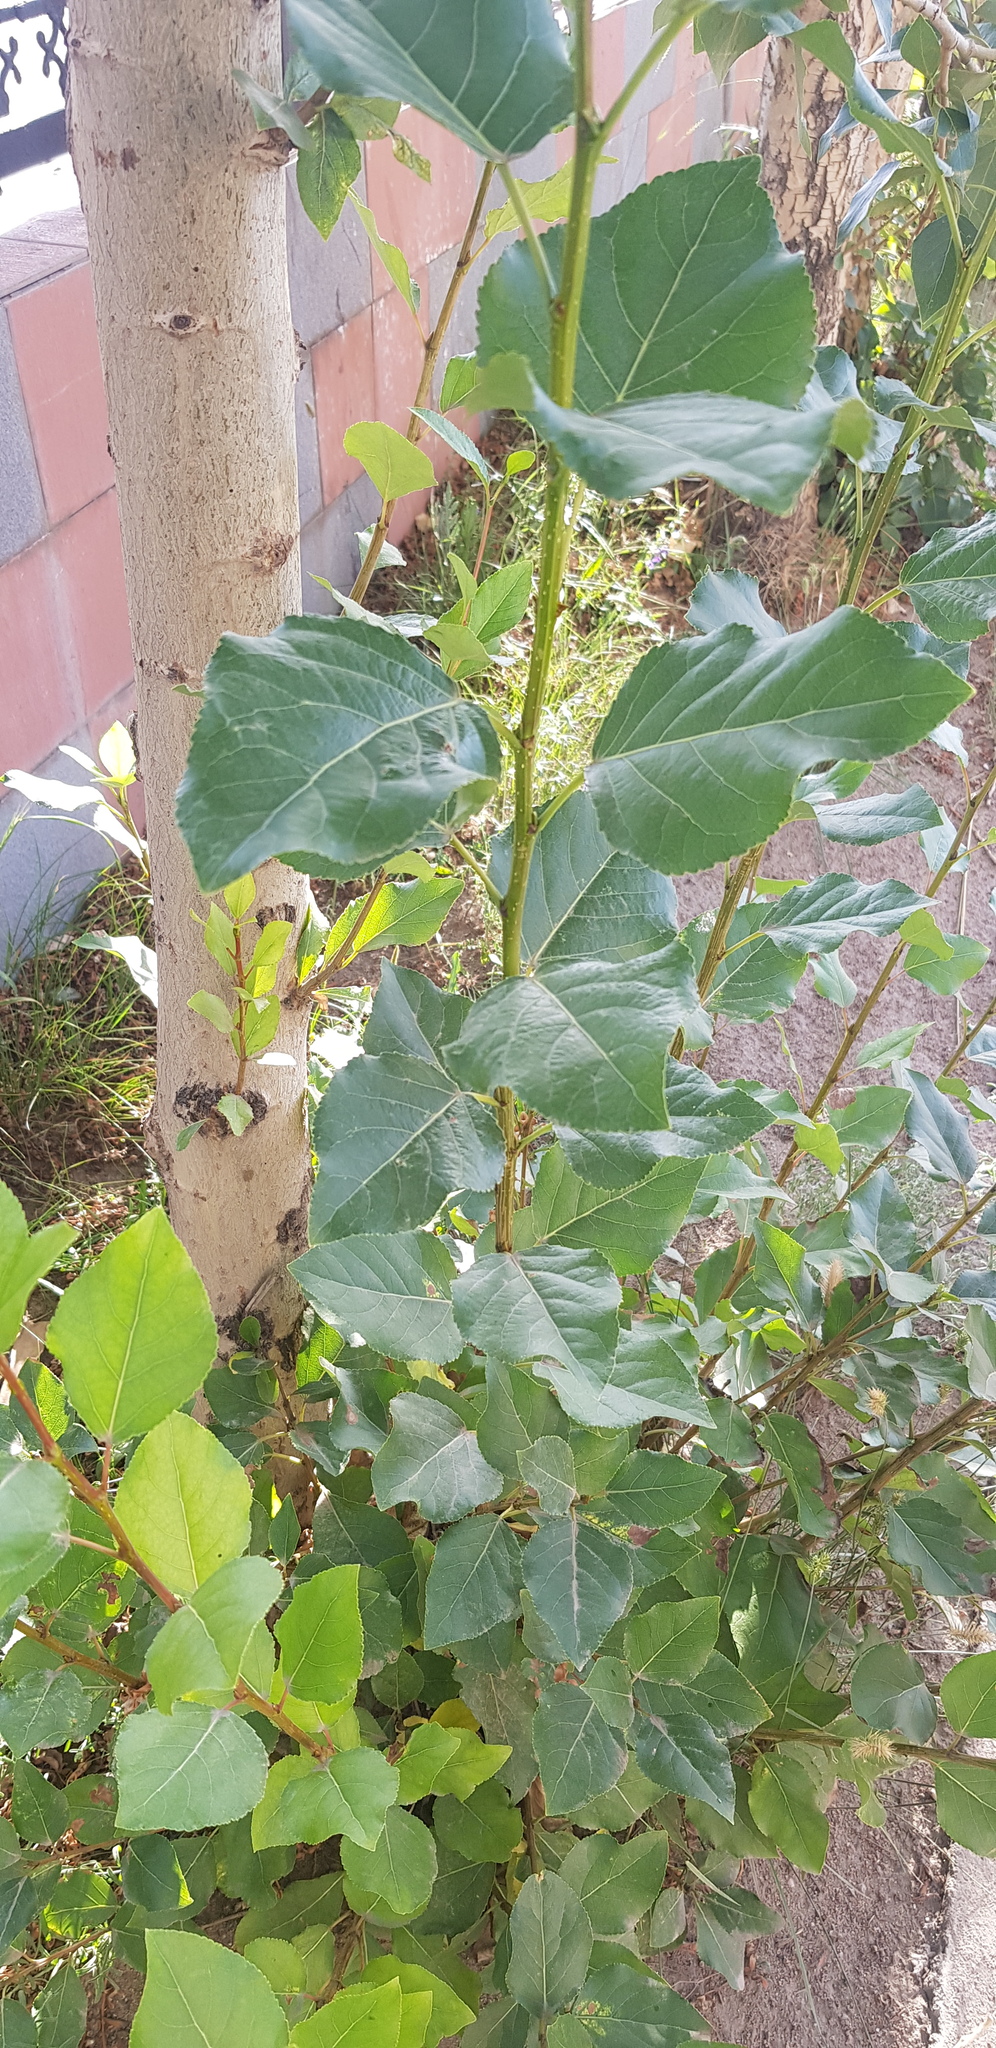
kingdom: Plantae
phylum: Tracheophyta
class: Magnoliopsida
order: Malpighiales
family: Salicaceae
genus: Populus
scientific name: Populus suaveolens
